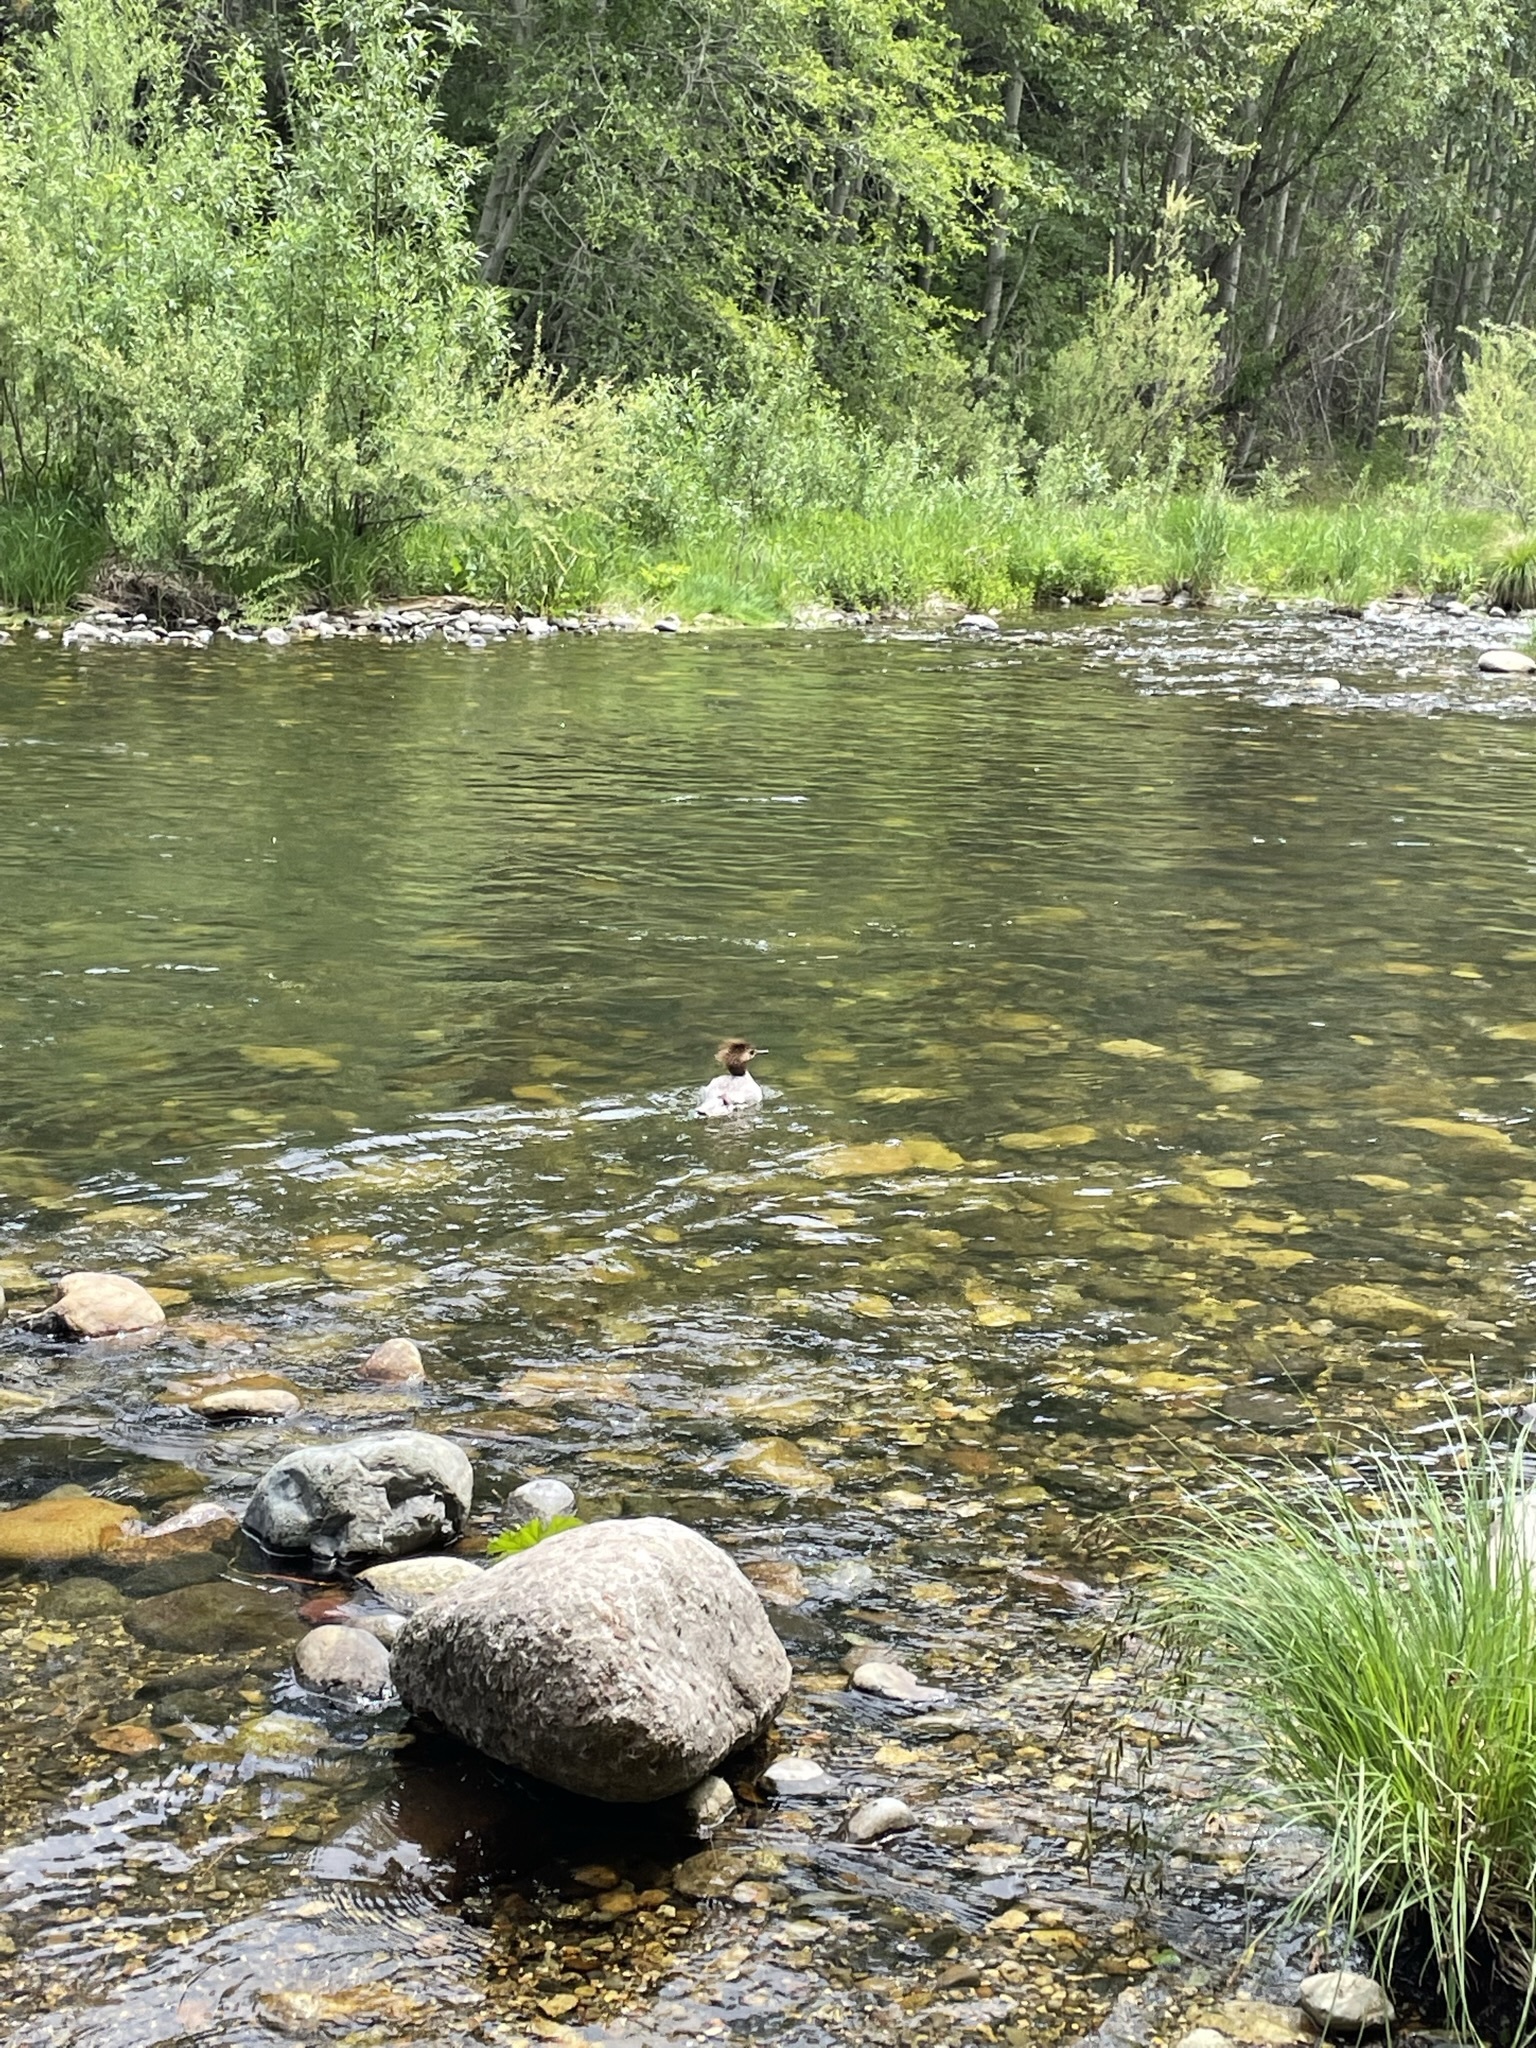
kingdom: Animalia
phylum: Chordata
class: Aves
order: Anseriformes
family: Anatidae
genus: Mergus
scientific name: Mergus merganser
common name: Common merganser
